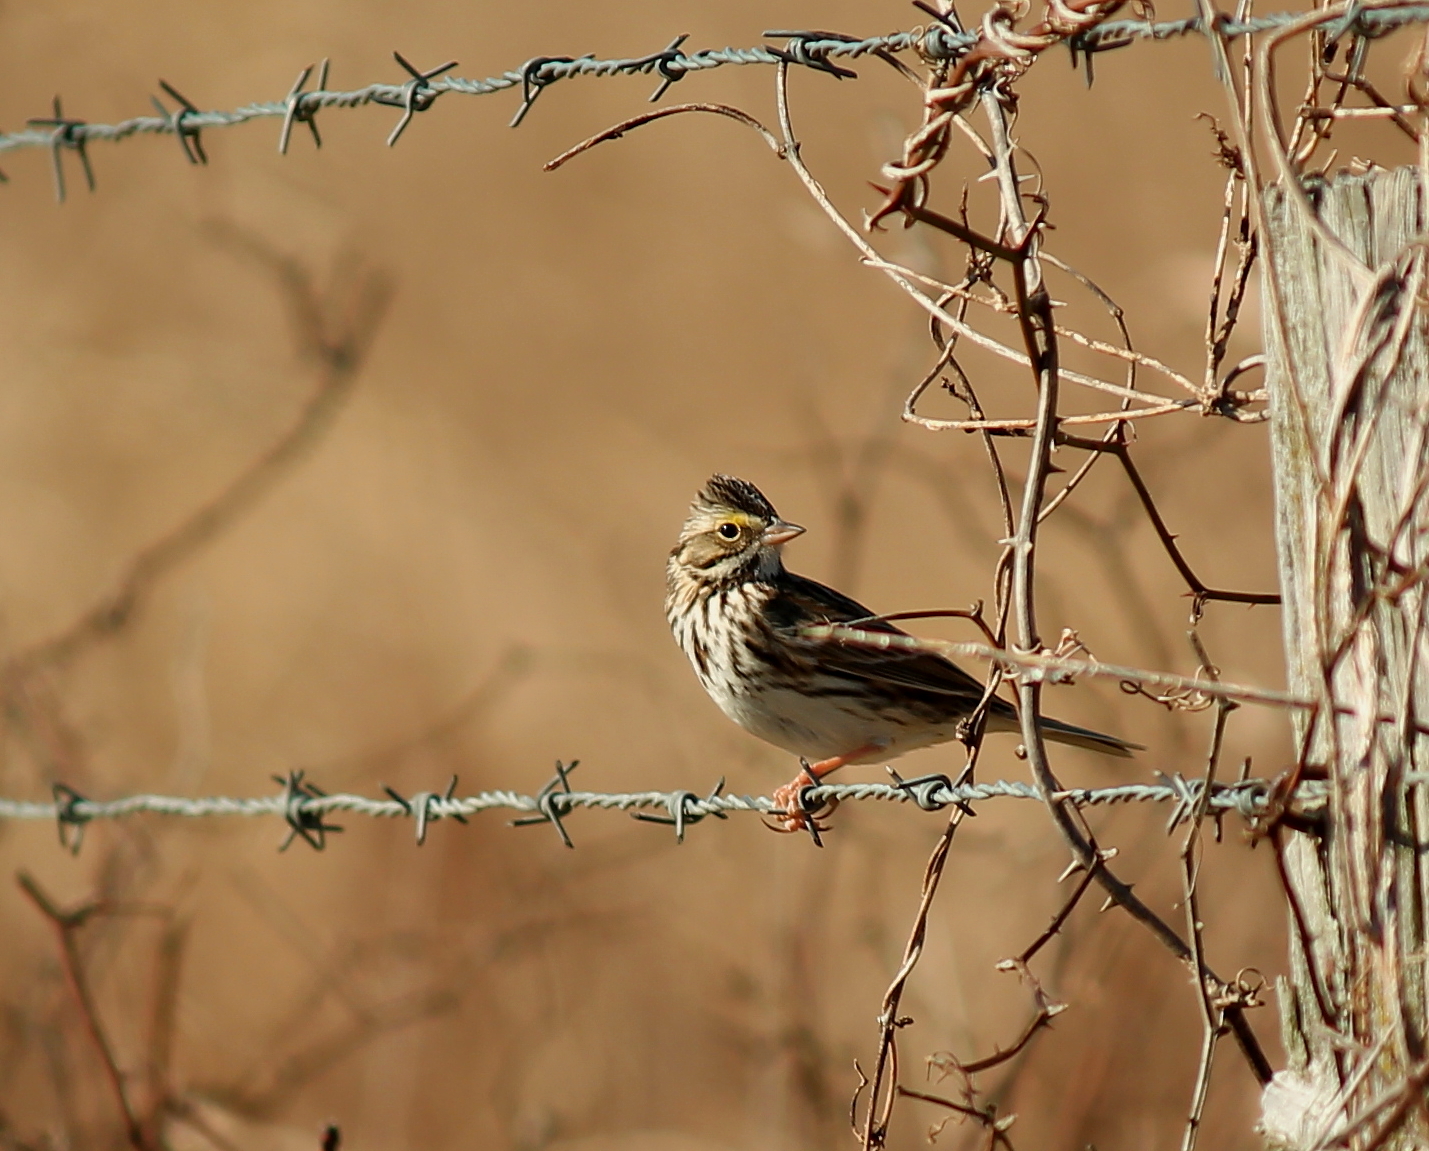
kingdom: Animalia
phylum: Chordata
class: Aves
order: Passeriformes
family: Passerellidae
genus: Passerculus
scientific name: Passerculus sandwichensis
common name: Savannah sparrow
